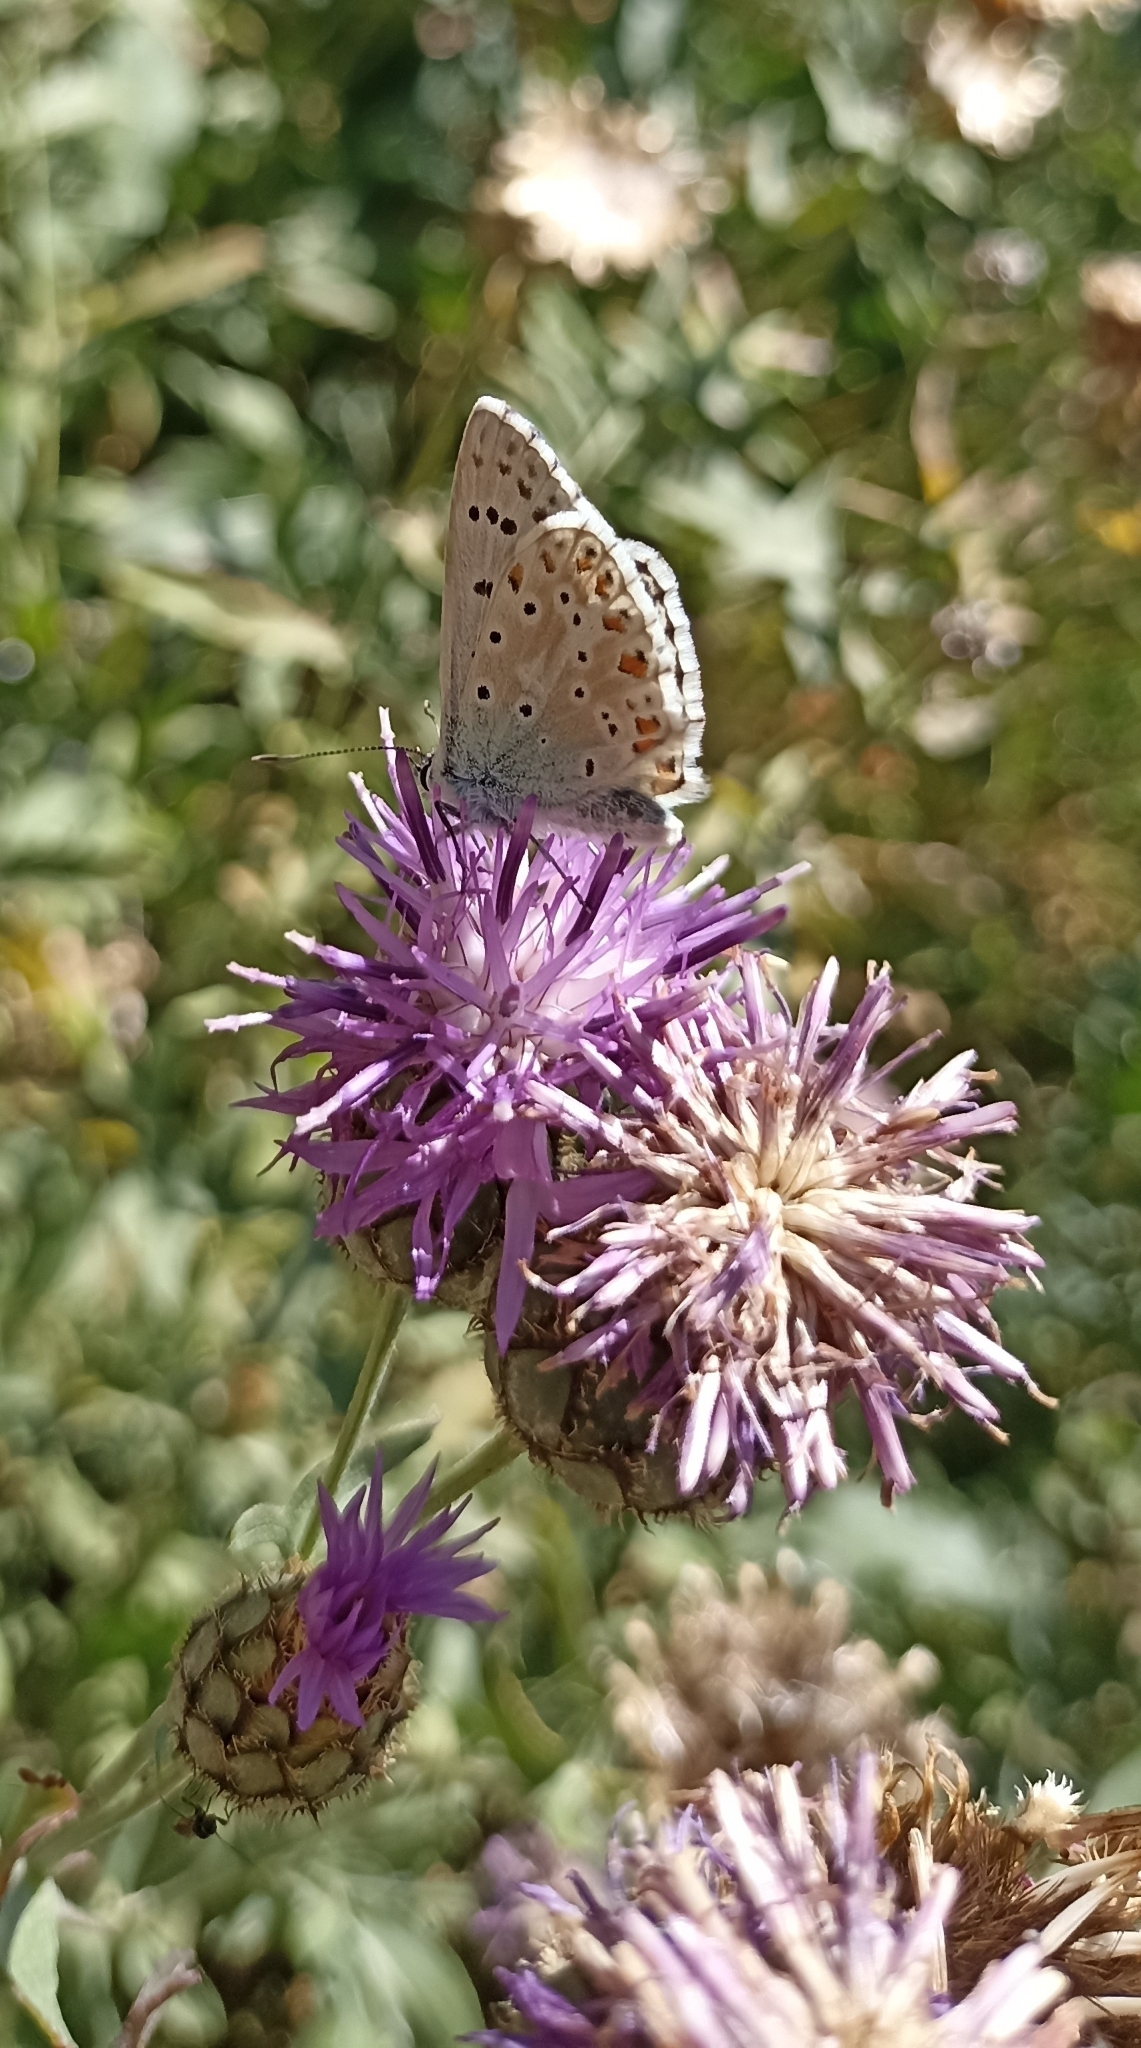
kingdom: Animalia
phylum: Arthropoda
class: Insecta
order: Lepidoptera
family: Lycaenidae
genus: Lysandra
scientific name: Lysandra coridon
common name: Chalkhill blue
